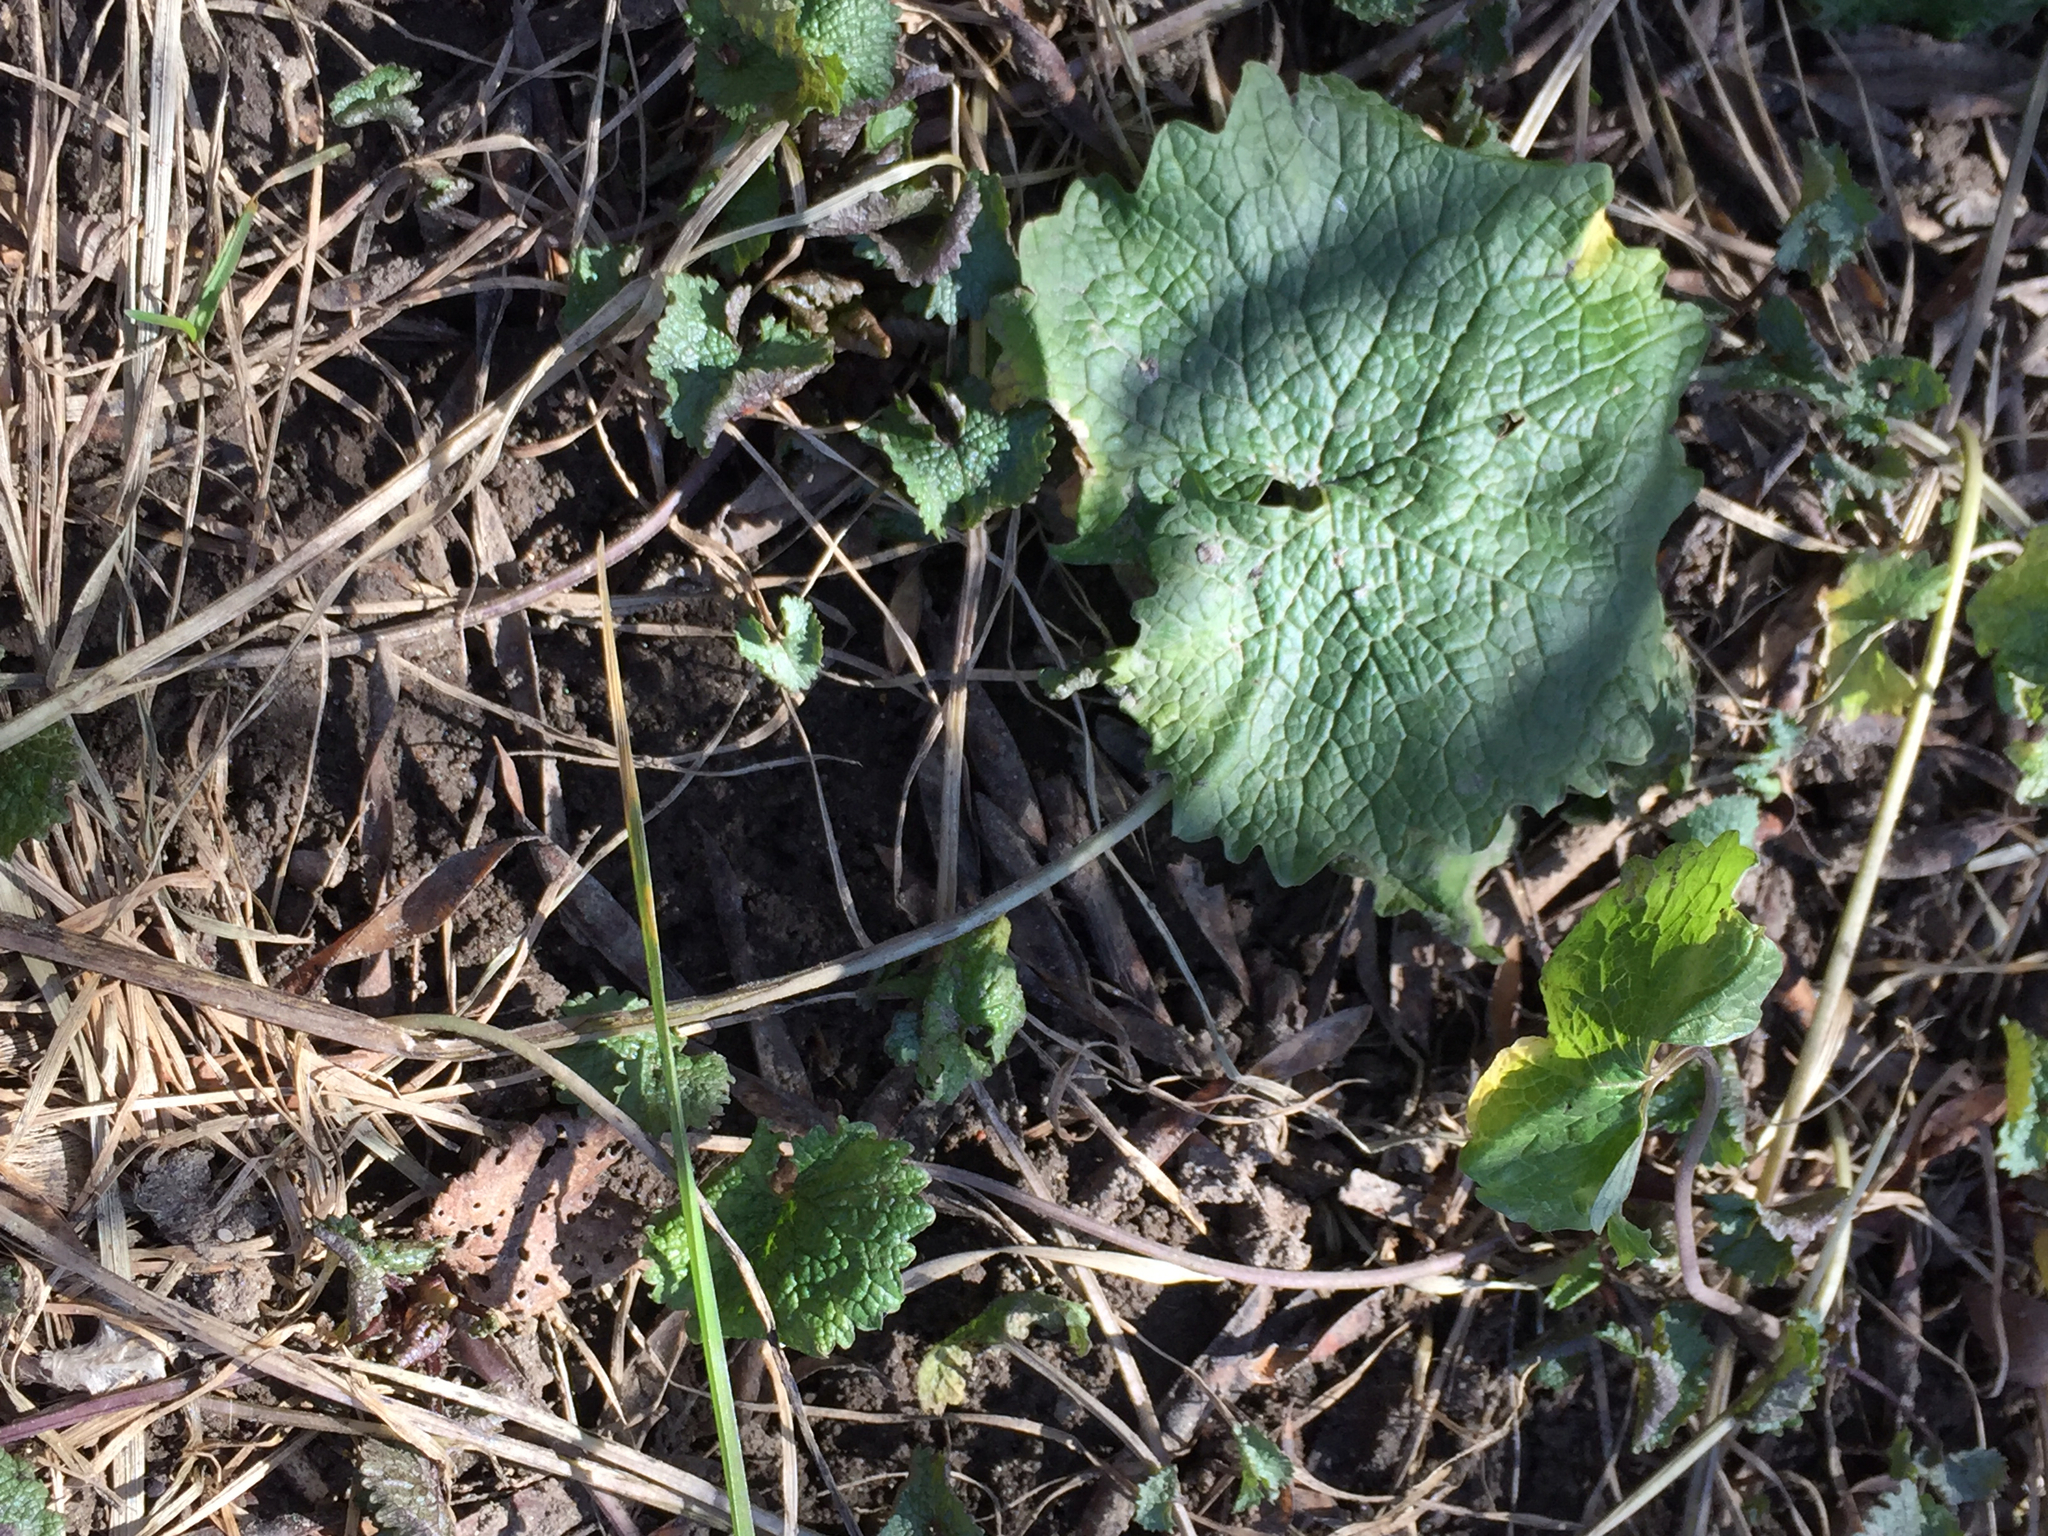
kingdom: Plantae
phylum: Tracheophyta
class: Magnoliopsida
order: Brassicales
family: Brassicaceae
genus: Alliaria
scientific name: Alliaria petiolata
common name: Garlic mustard
